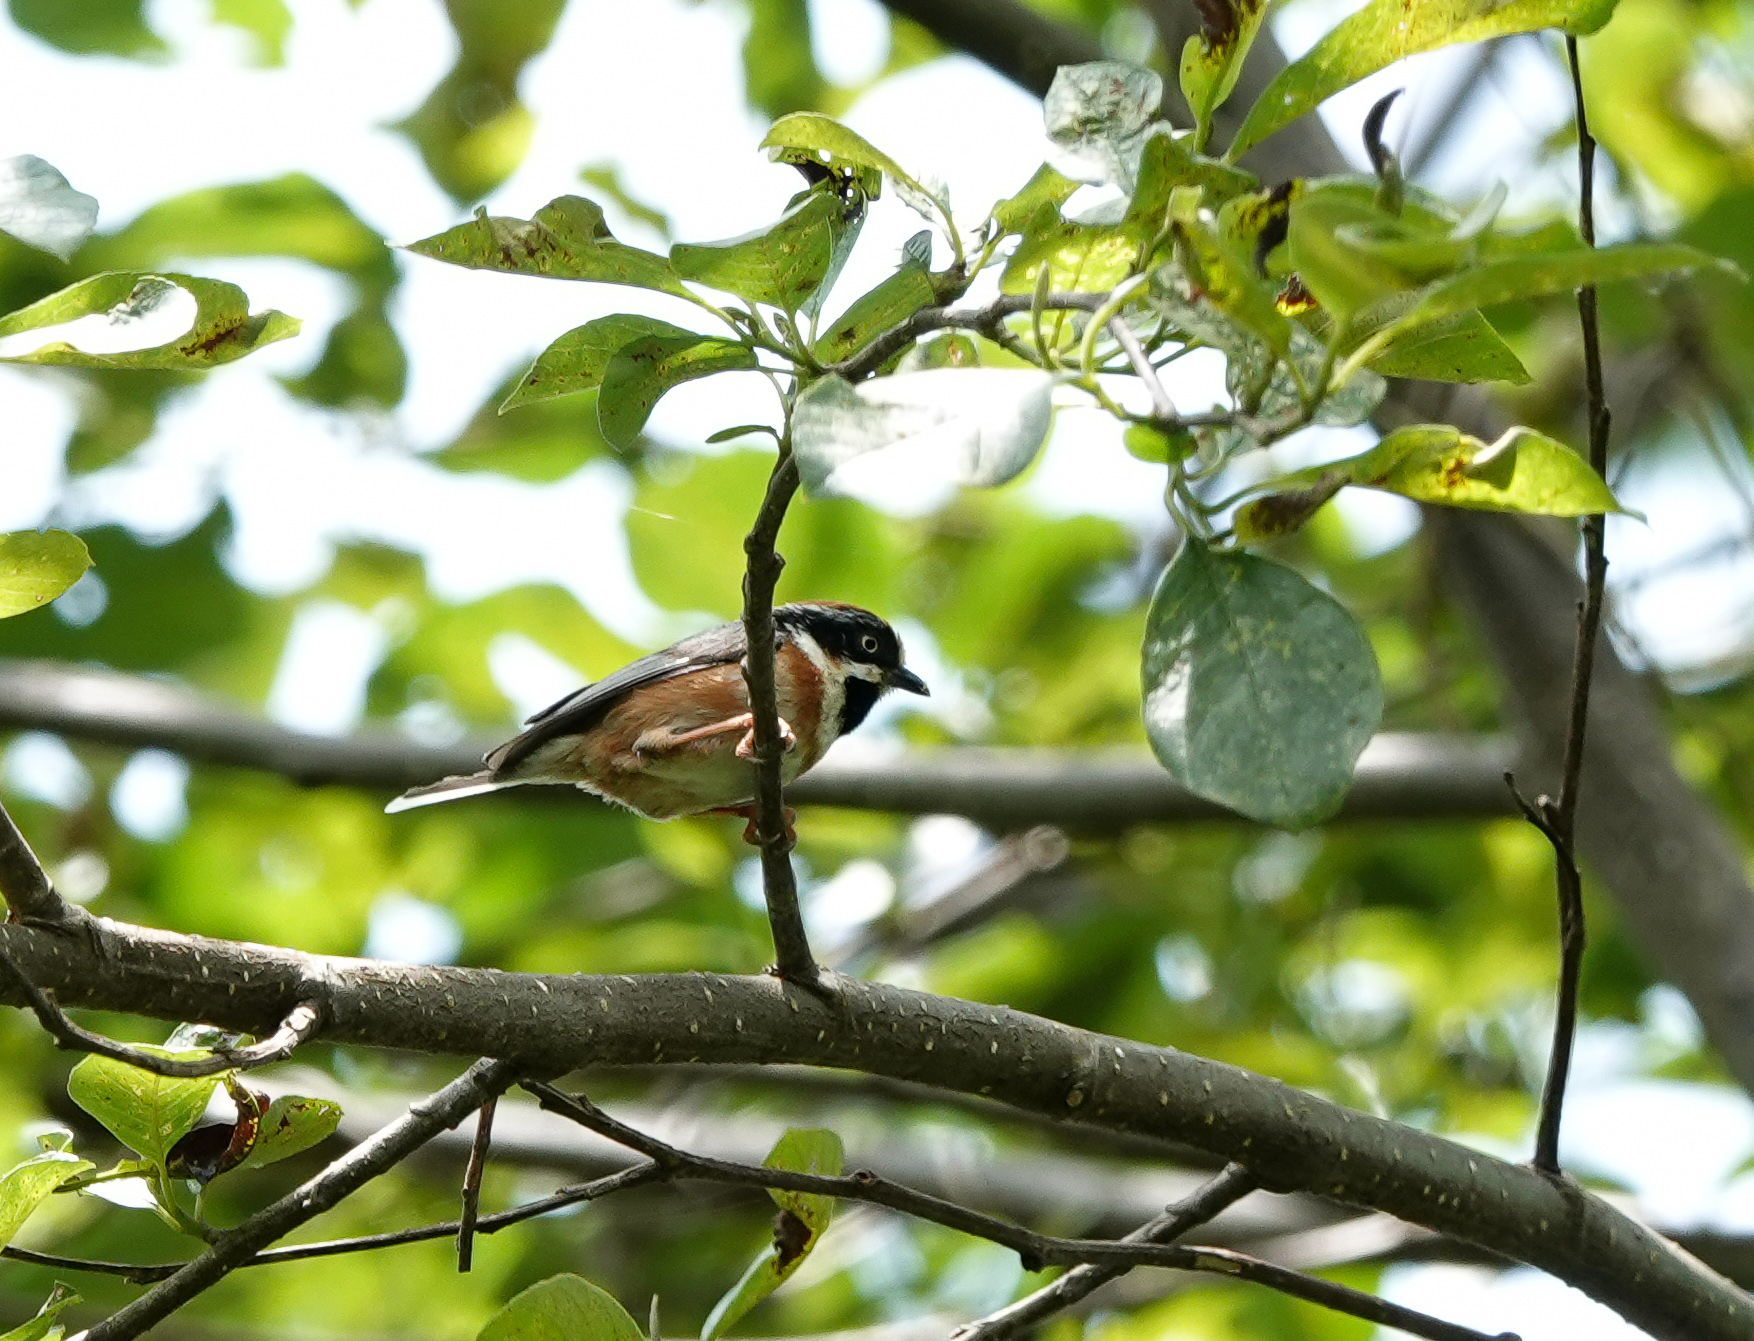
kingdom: Animalia
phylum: Chordata
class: Aves
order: Passeriformes
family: Aegithalidae
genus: Aegithalos
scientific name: Aegithalos concinnus
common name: Black-throated bushtit
